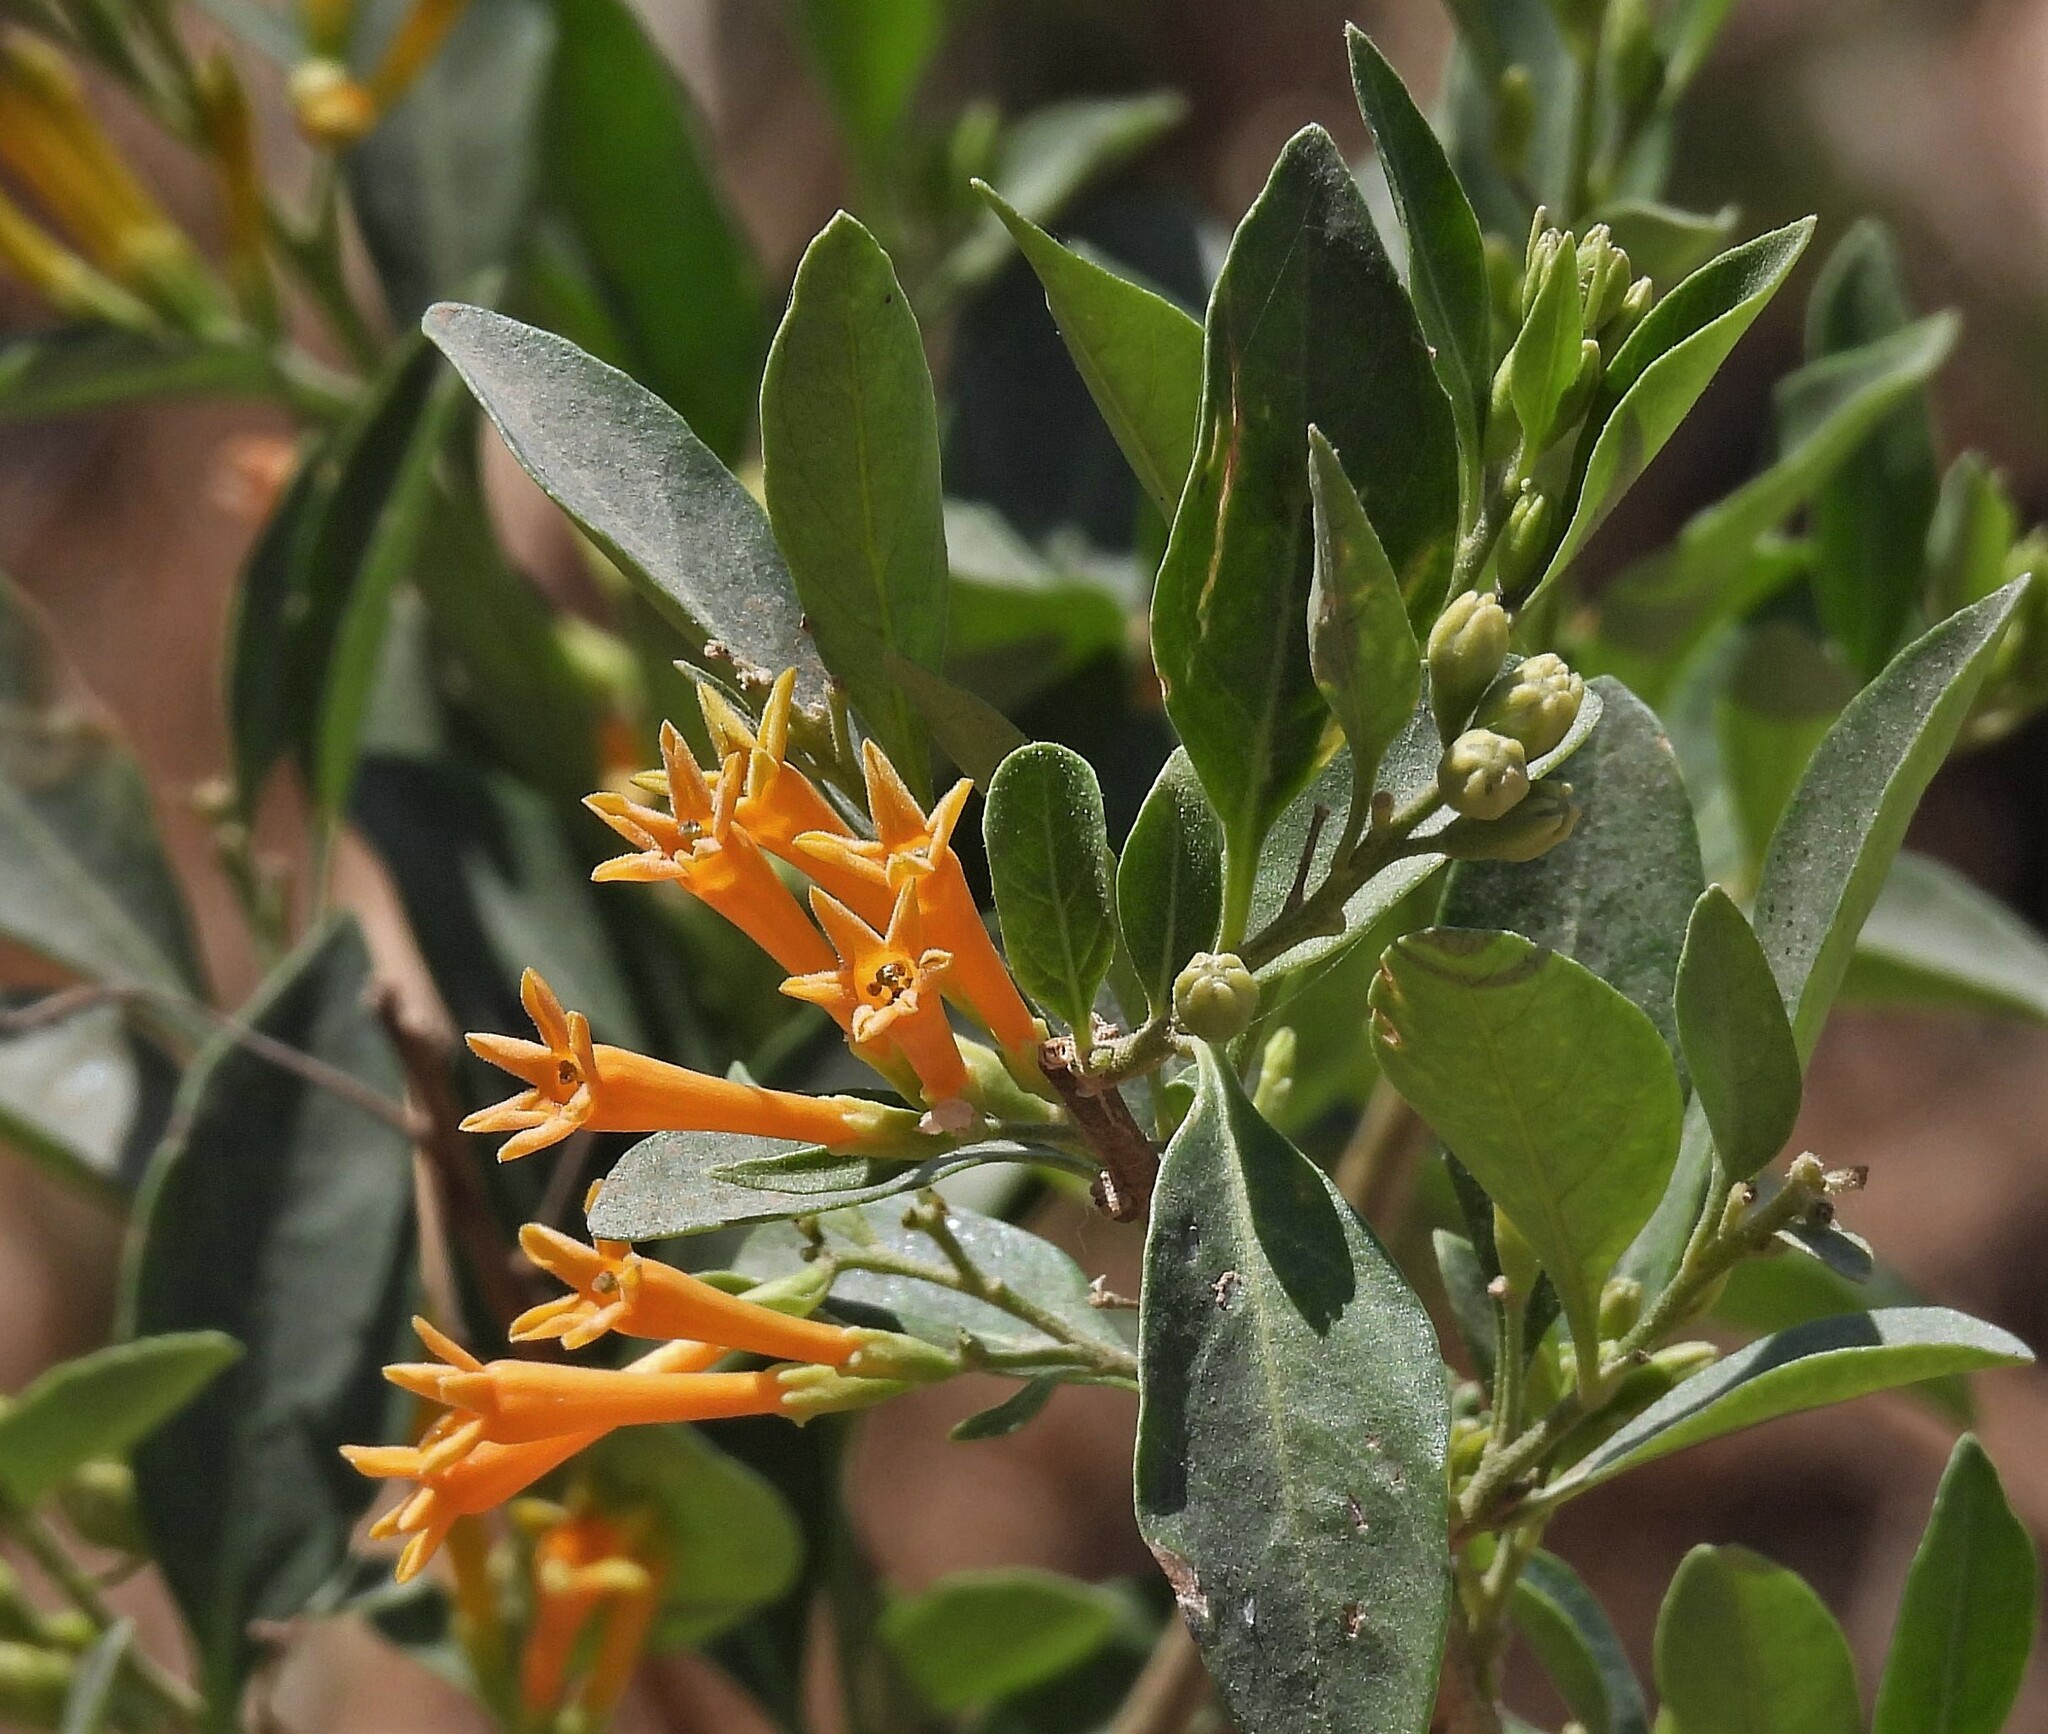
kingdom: Plantae
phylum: Tracheophyta
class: Magnoliopsida
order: Solanales
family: Solanaceae
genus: Cestrum
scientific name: Cestrum parqui
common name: Chilean cestrum
